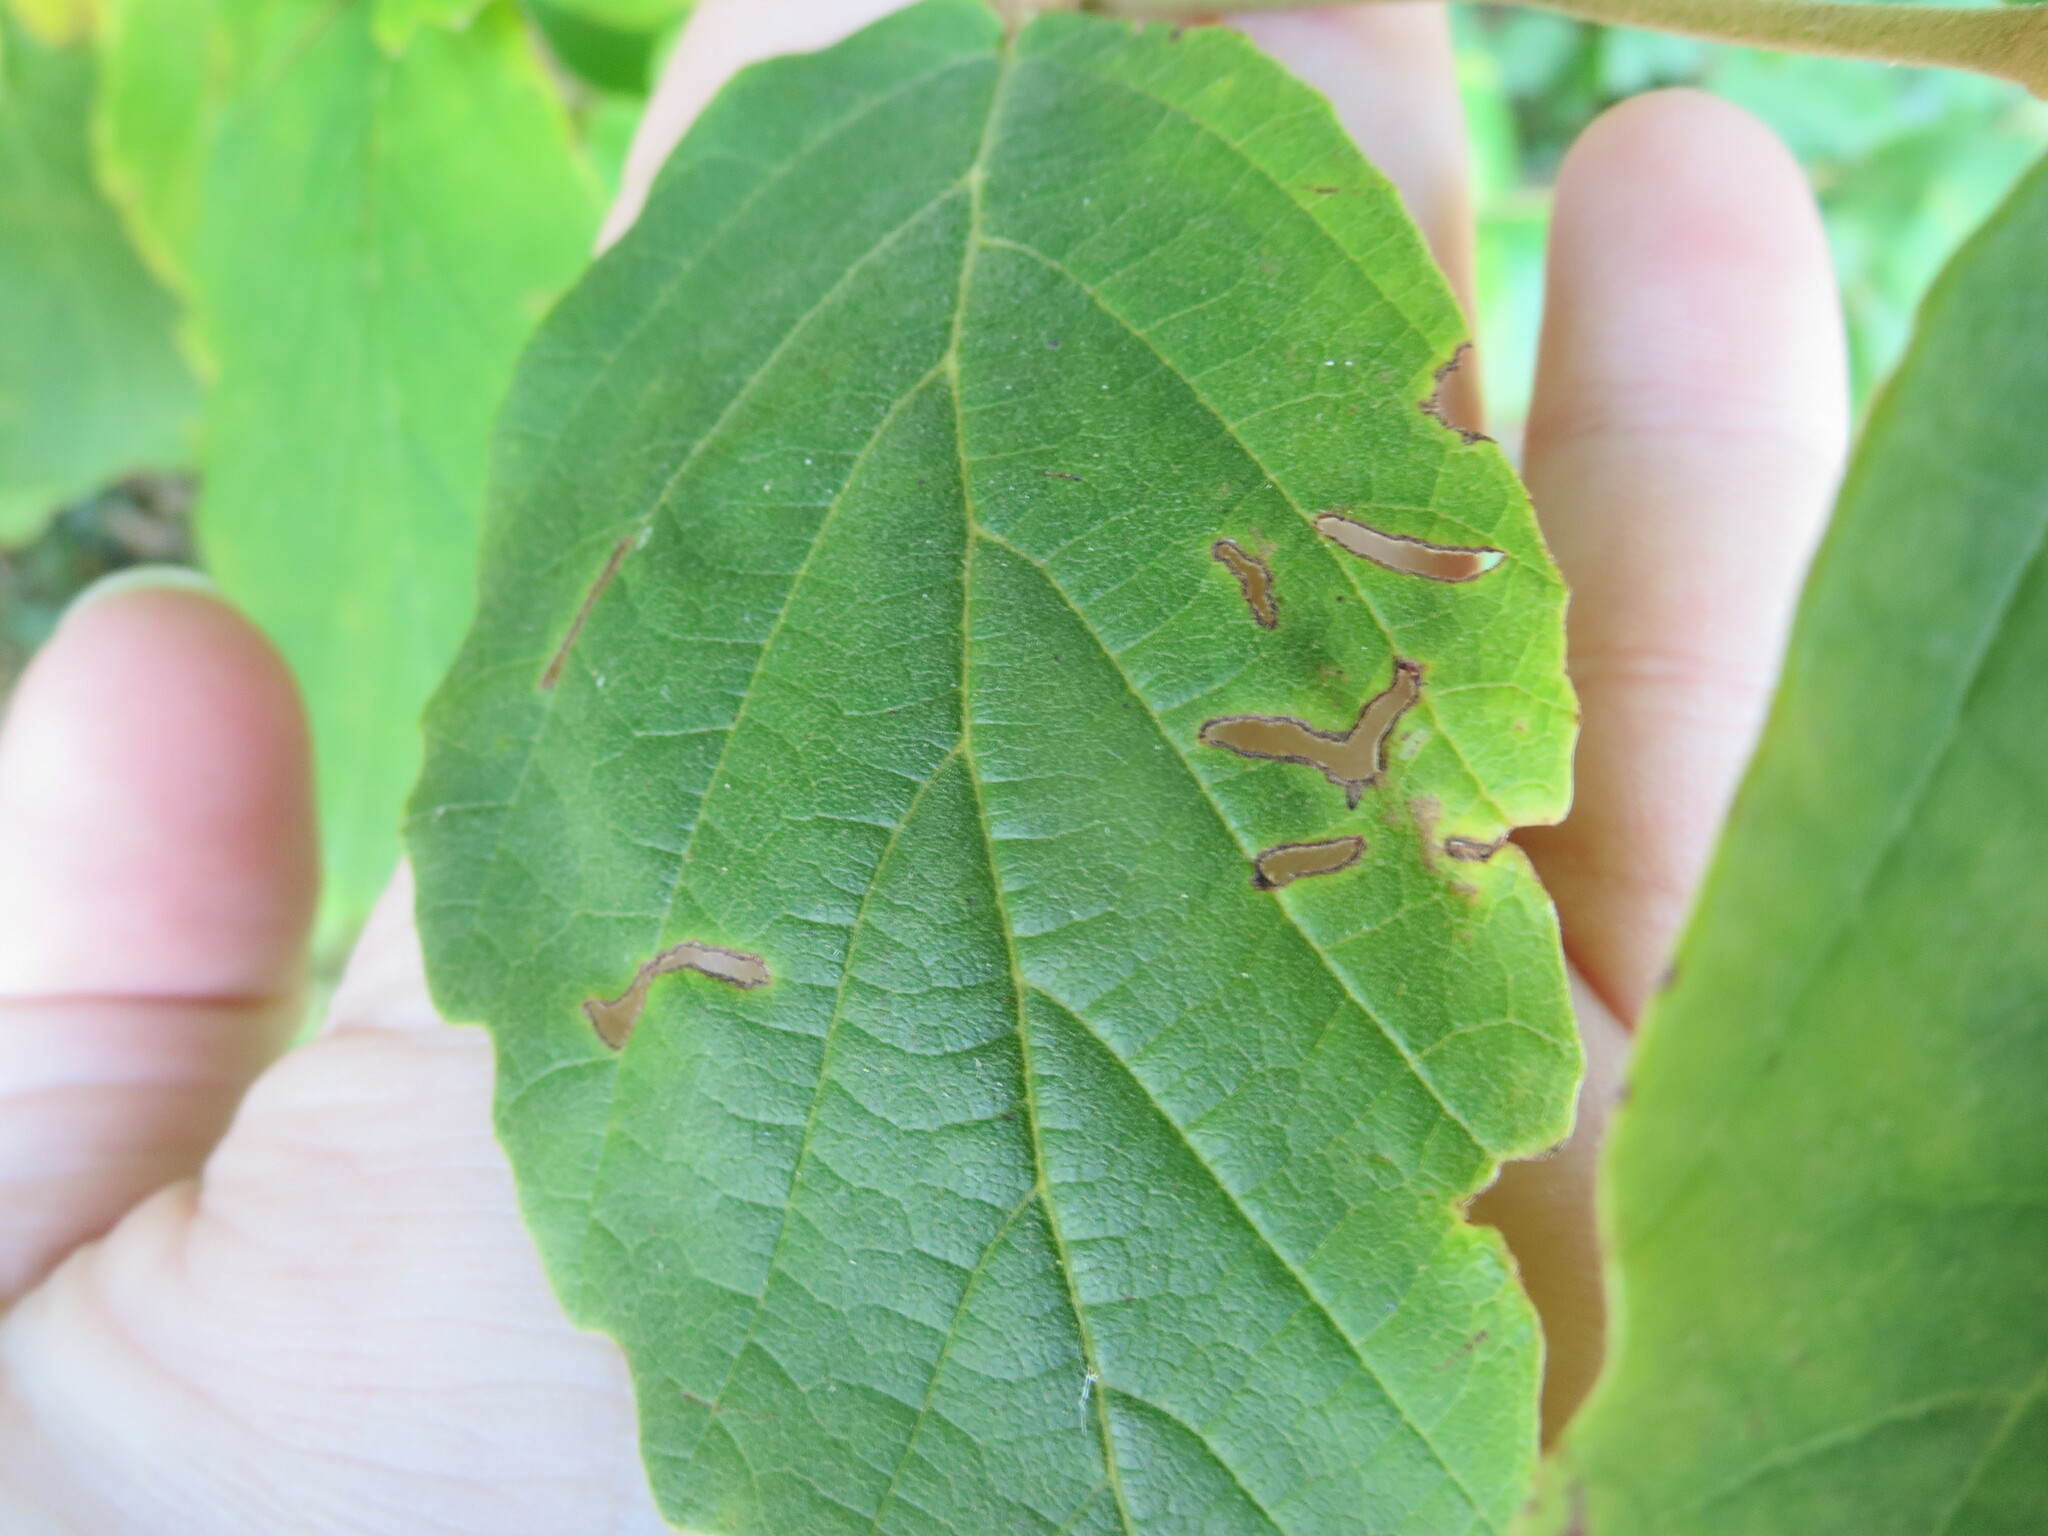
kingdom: Plantae
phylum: Tracheophyta
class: Magnoliopsida
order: Saxifragales
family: Hamamelidaceae
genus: Hamamelis
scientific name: Hamamelis virginiana
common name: Witch-hazel
